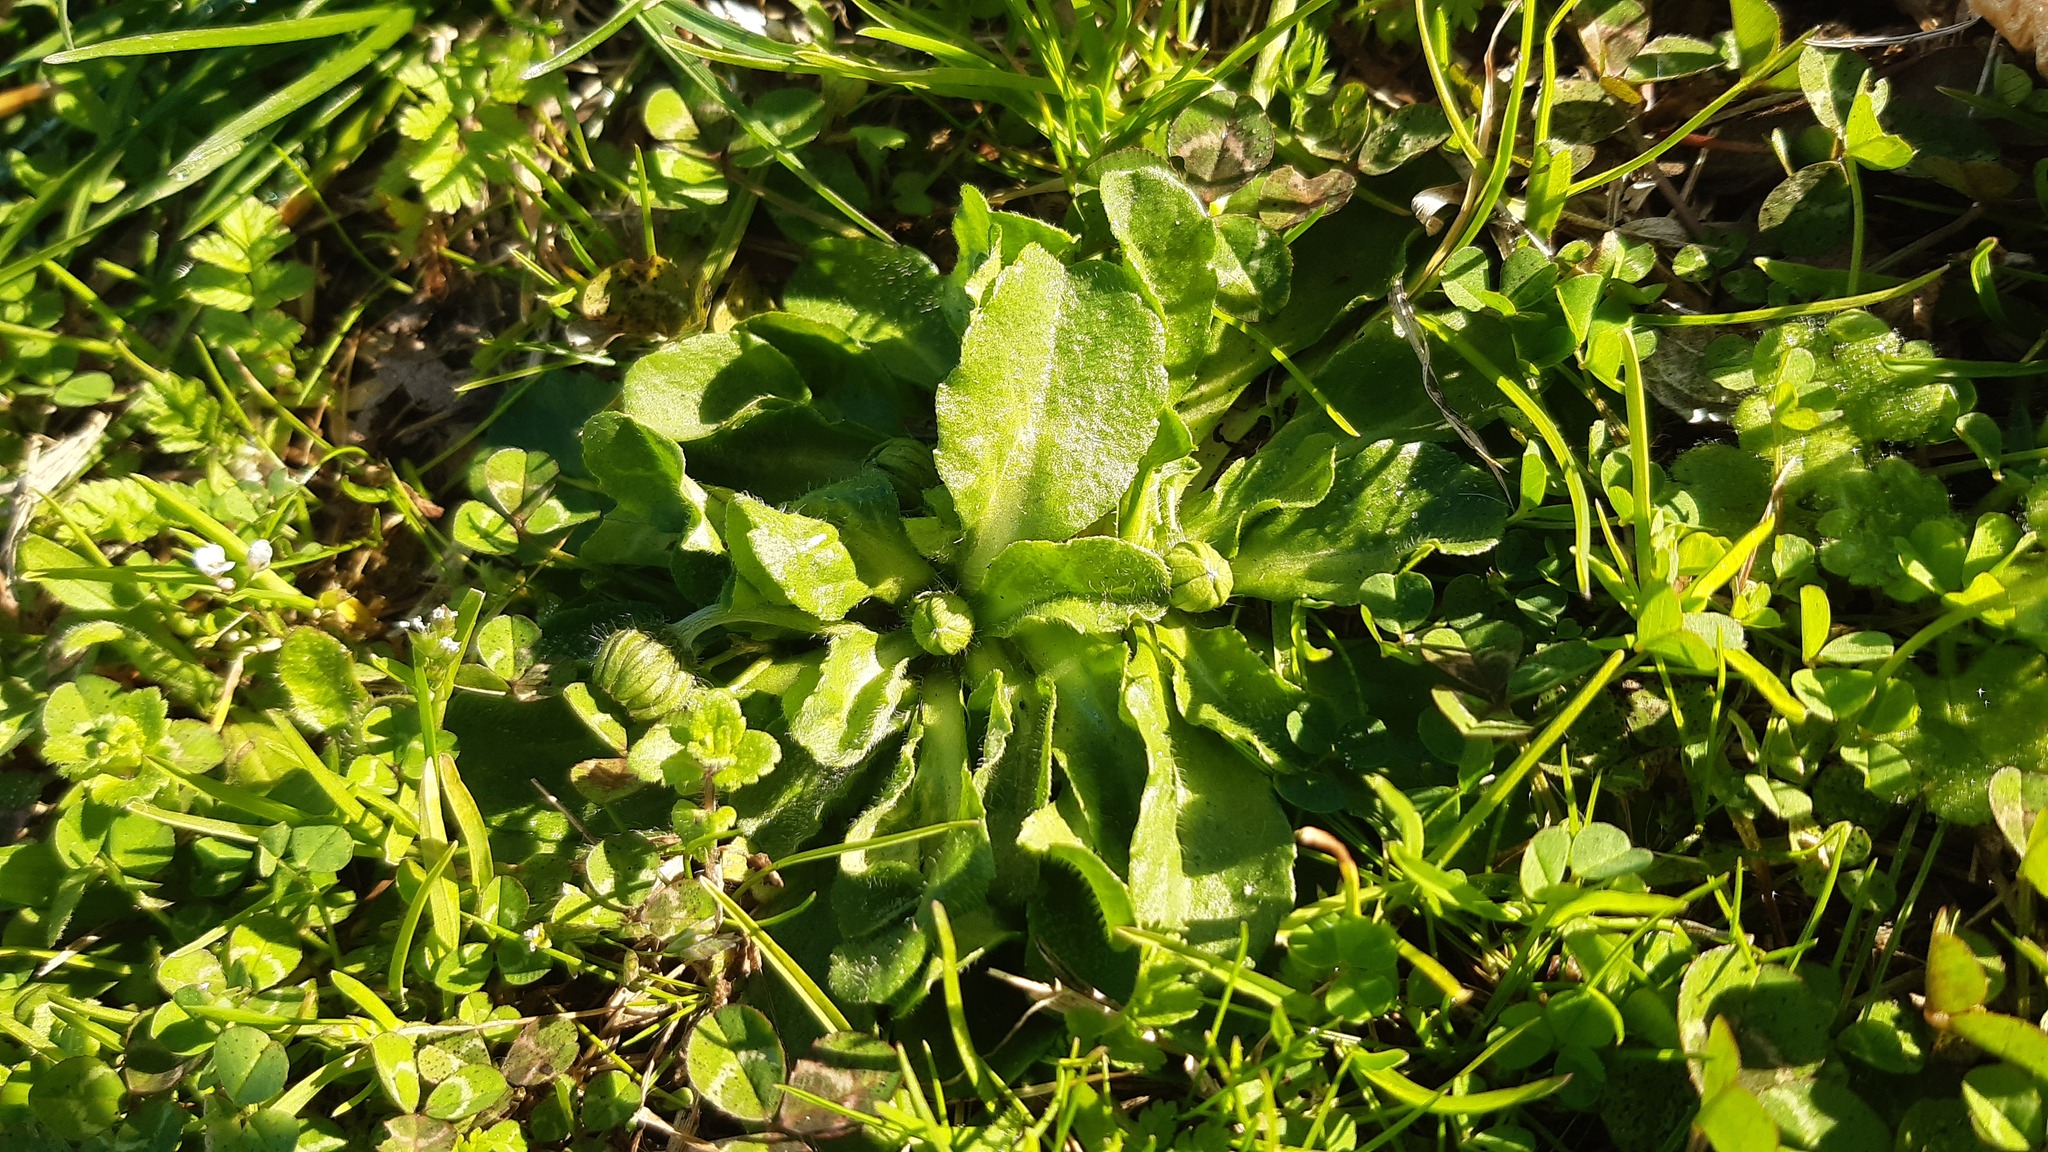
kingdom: Plantae
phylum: Tracheophyta
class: Magnoliopsida
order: Asterales
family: Asteraceae
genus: Bellis
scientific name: Bellis perennis
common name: Lawndaisy
